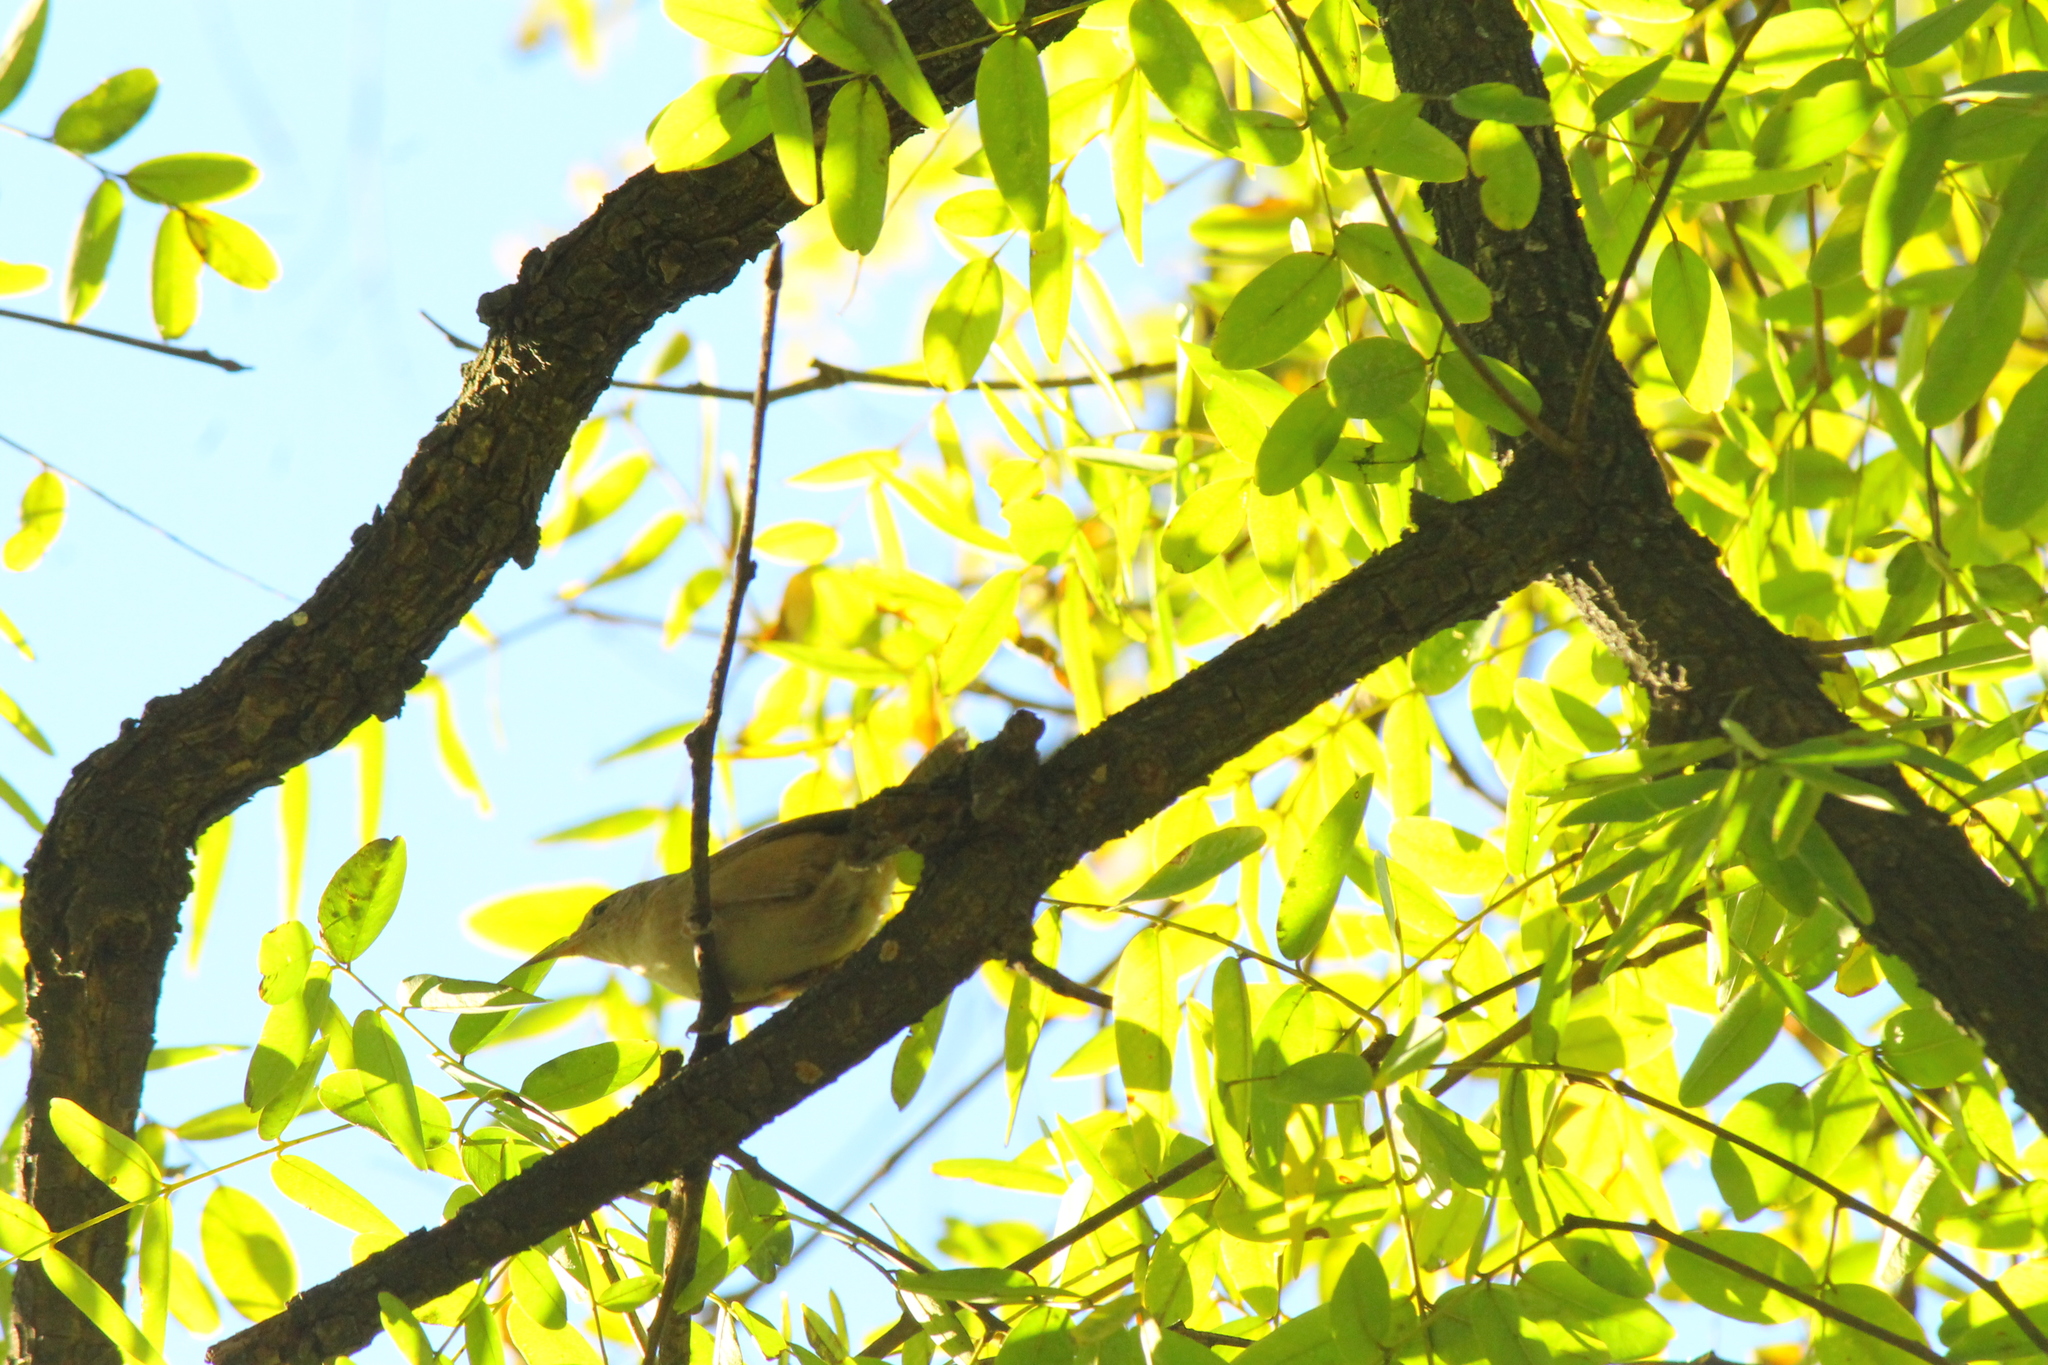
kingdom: Animalia
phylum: Chordata
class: Aves
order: Passeriformes
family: Troglodytidae
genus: Troglodytes
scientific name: Troglodytes aedon
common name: House wren
